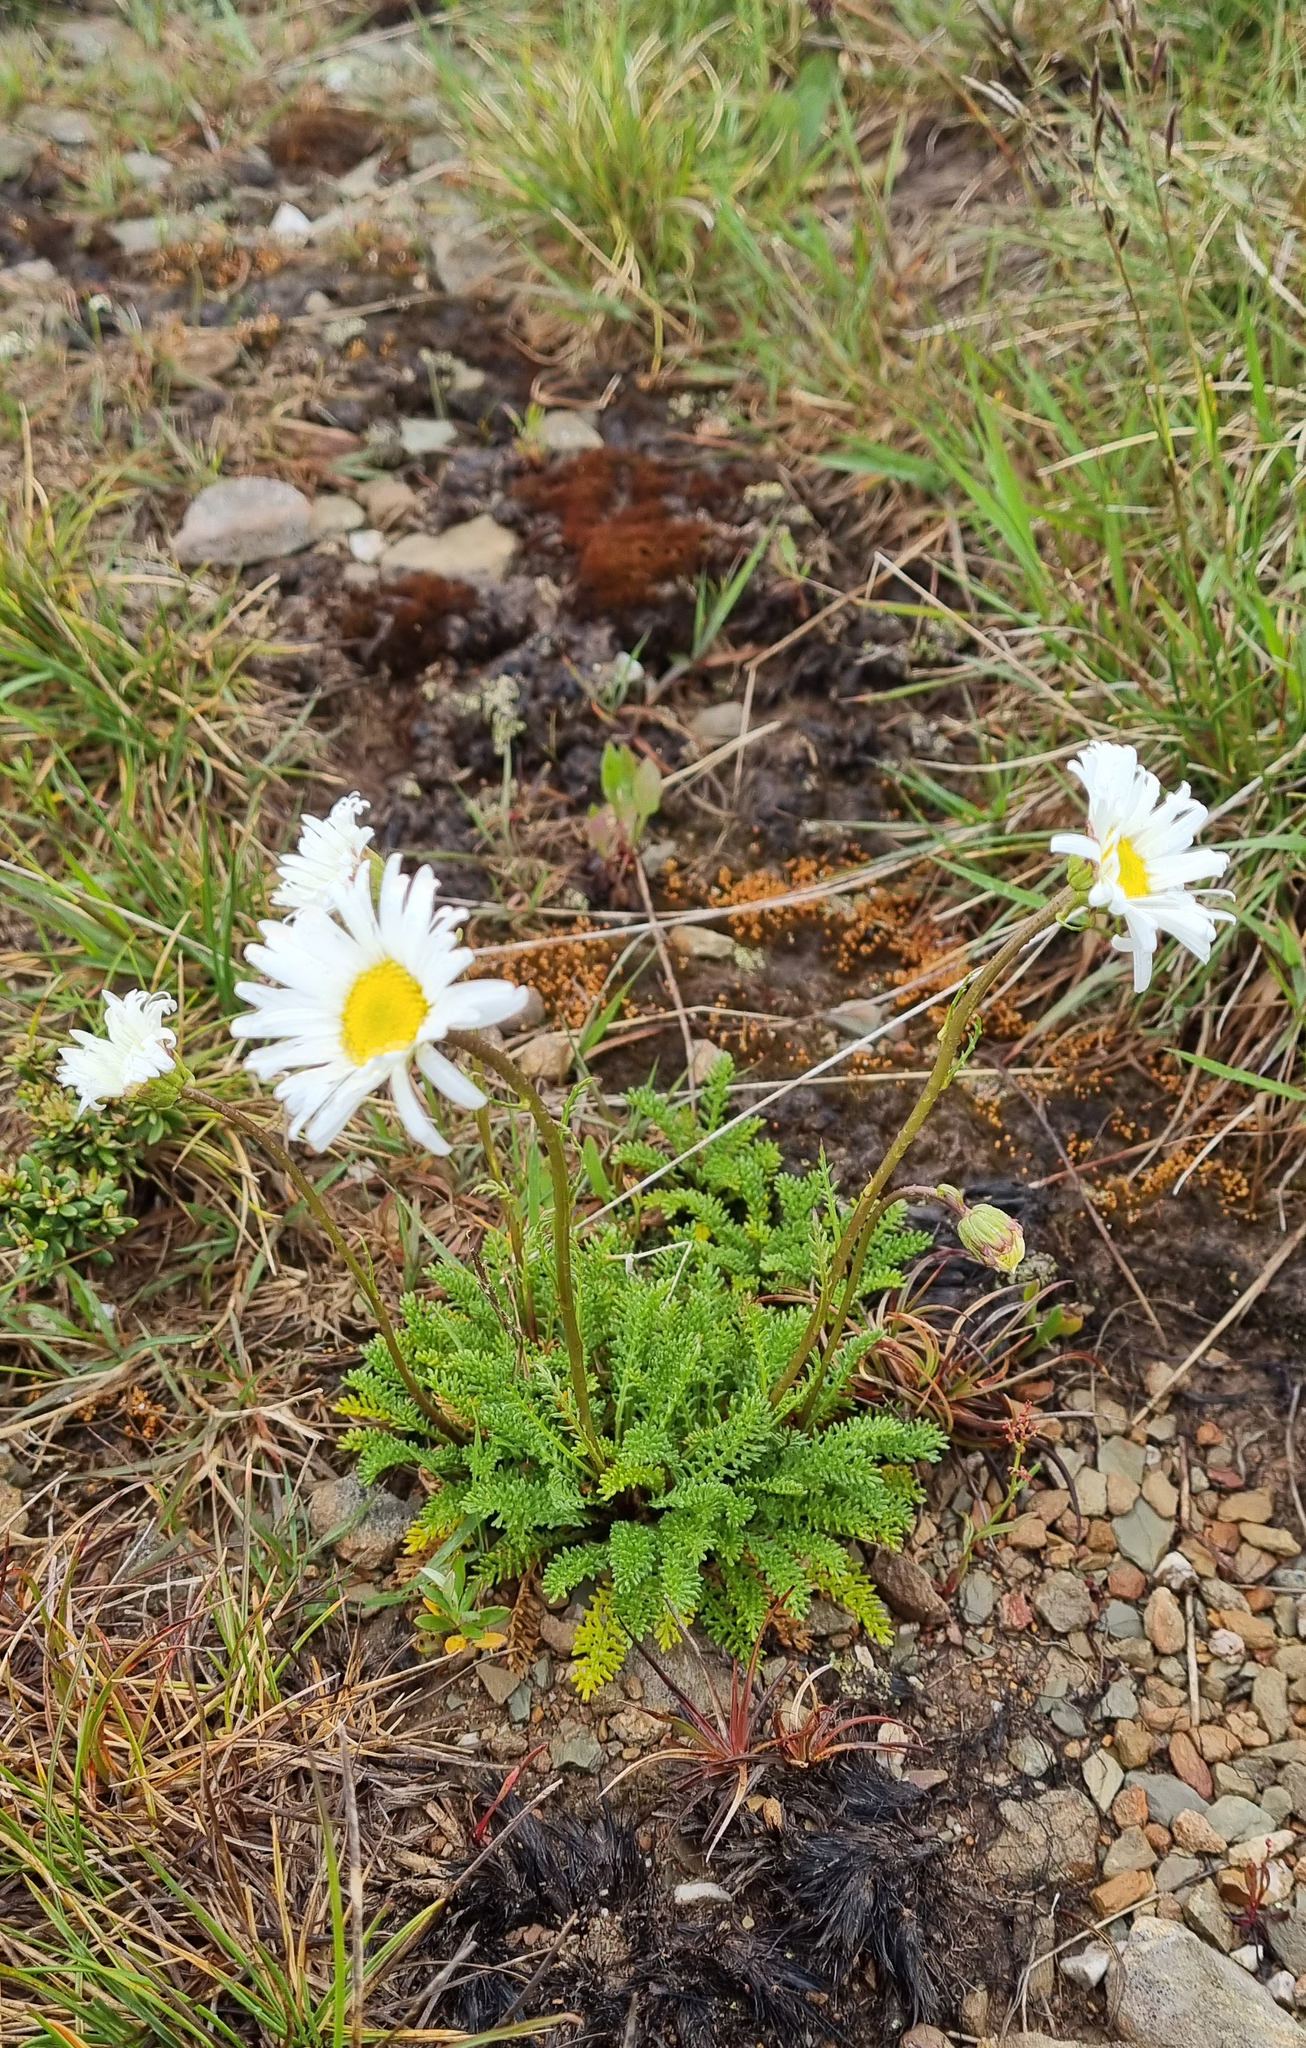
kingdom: Plantae
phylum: Tracheophyta
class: Magnoliopsida
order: Asterales
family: Asteraceae
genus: Brachyscome
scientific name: Brachyscome nivalis
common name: Snow daisy
